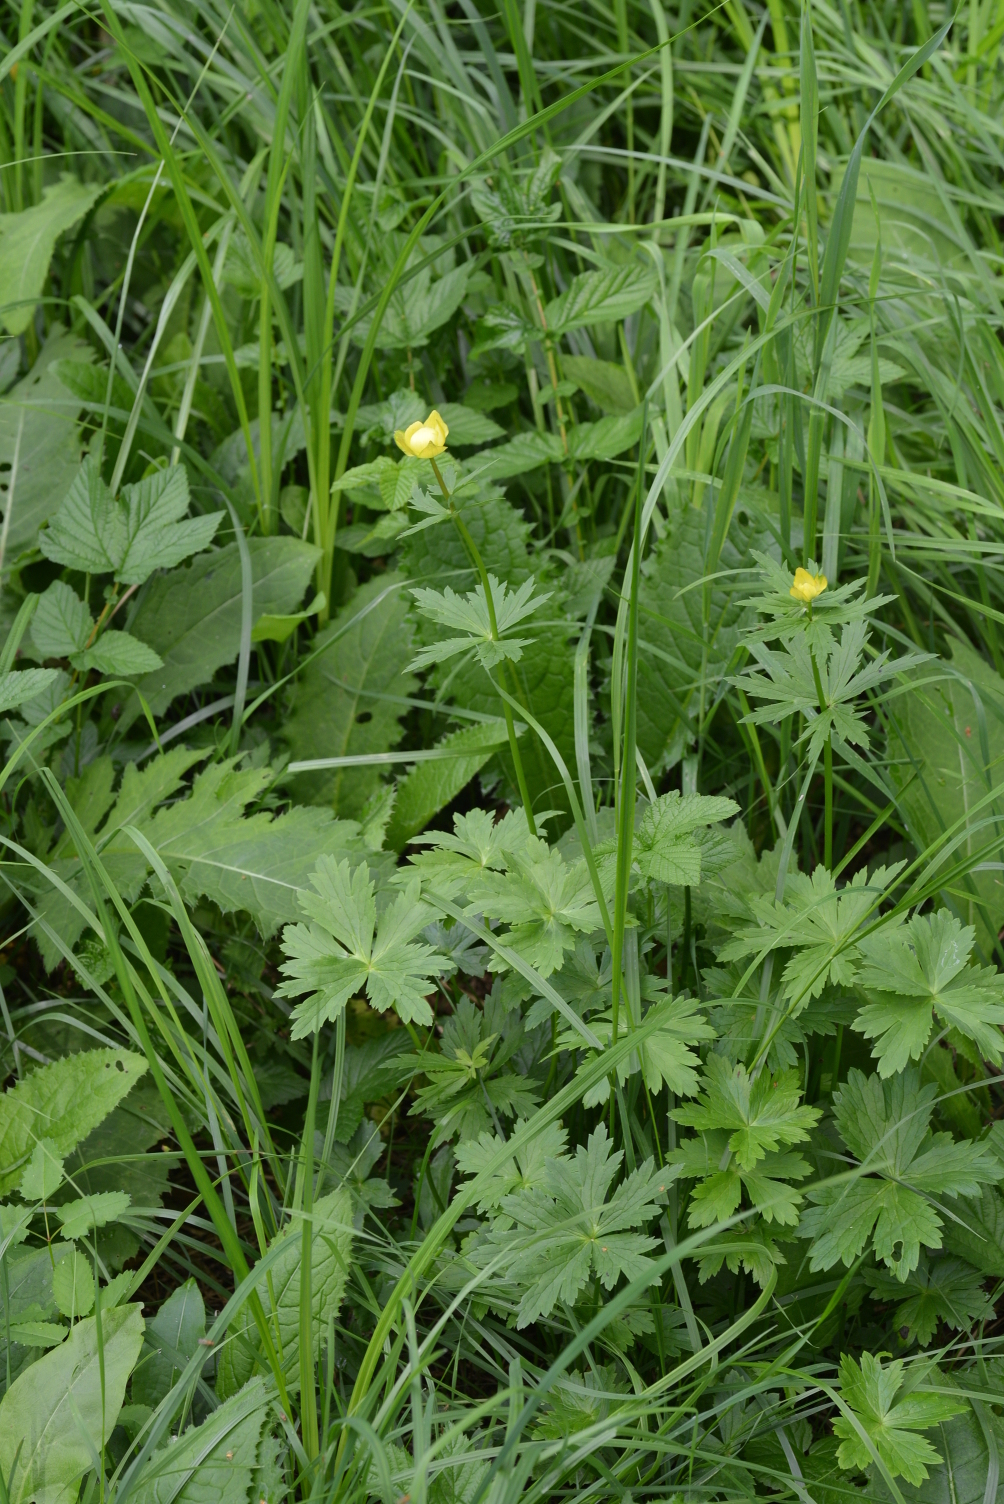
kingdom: Plantae
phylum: Tracheophyta
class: Magnoliopsida
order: Ranunculales
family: Ranunculaceae
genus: Trollius
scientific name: Trollius europaeus
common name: European globeflower
